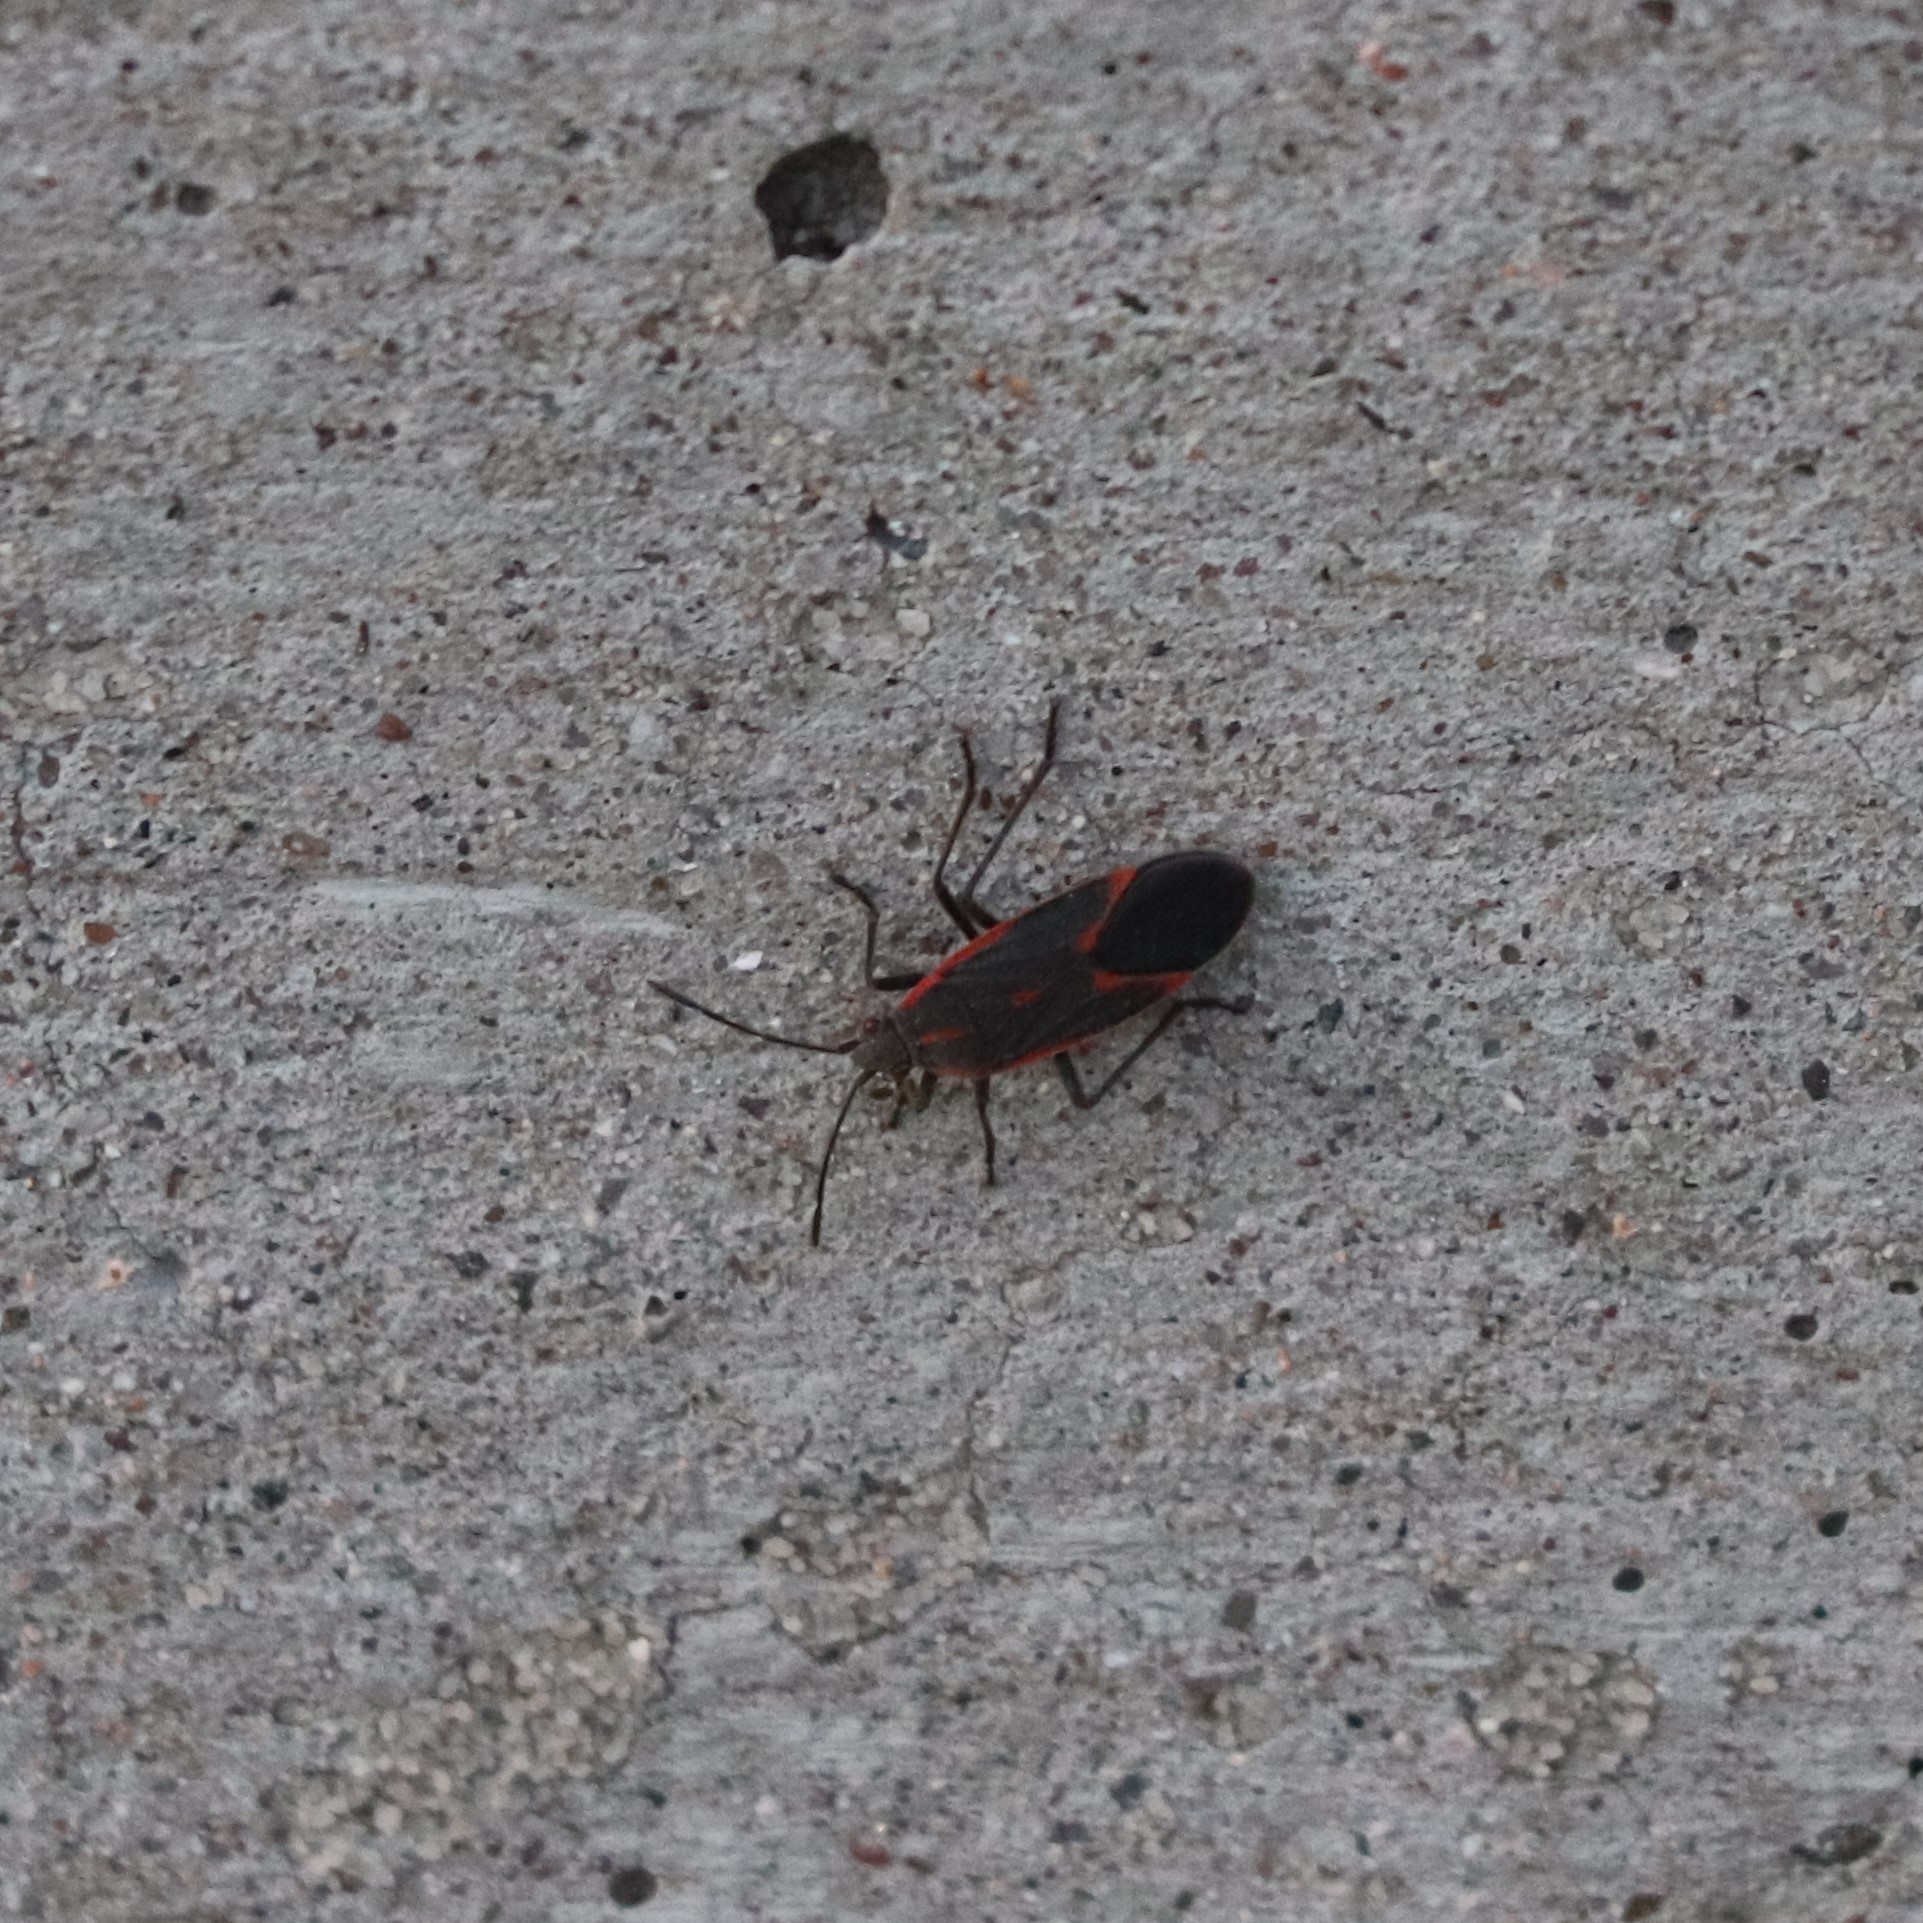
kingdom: Animalia
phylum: Arthropoda
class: Insecta
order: Hemiptera
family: Rhopalidae
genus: Boisea
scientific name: Boisea trivittata
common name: Boxelder bug
